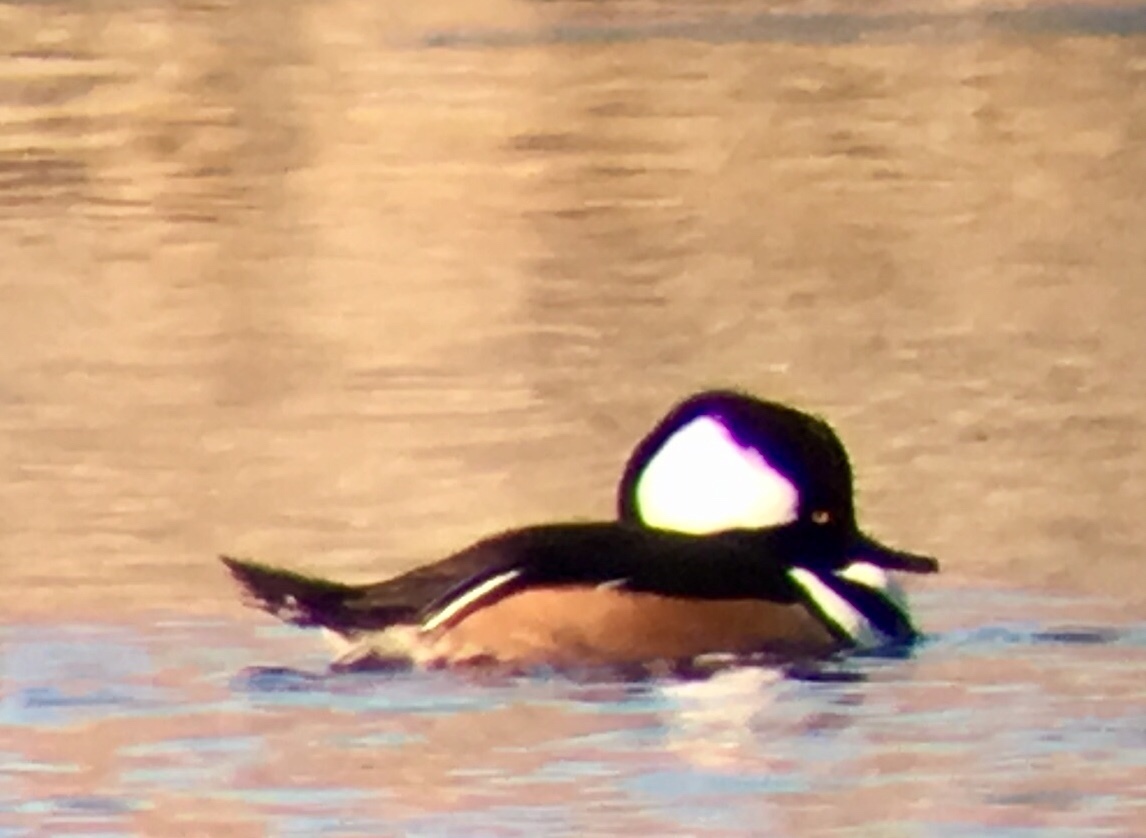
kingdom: Animalia
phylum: Chordata
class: Aves
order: Anseriformes
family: Anatidae
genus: Lophodytes
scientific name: Lophodytes cucullatus
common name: Hooded merganser
